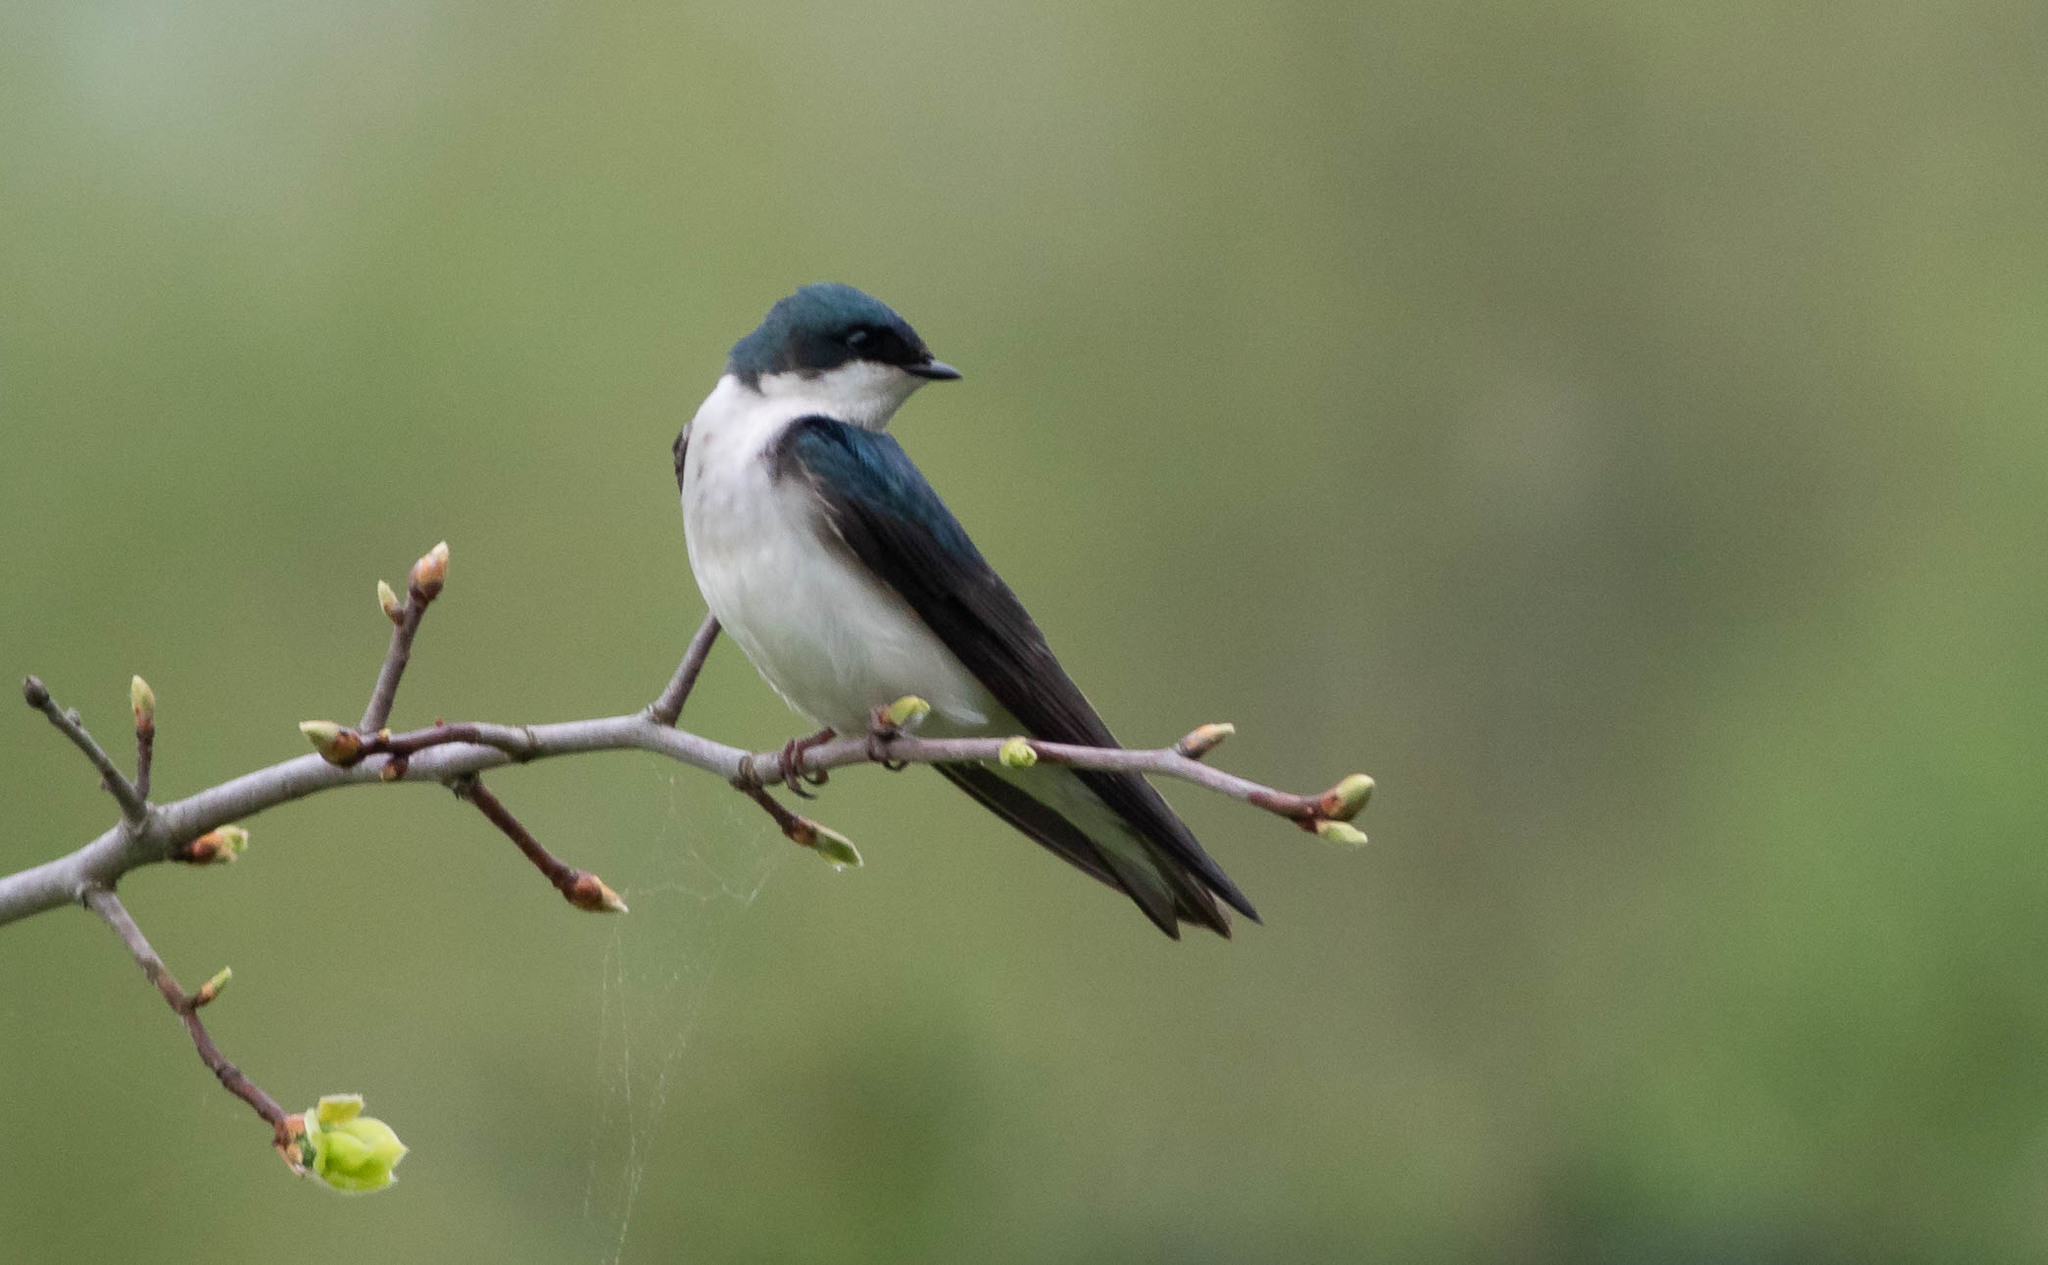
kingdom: Animalia
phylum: Chordata
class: Aves
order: Passeriformes
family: Hirundinidae
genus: Tachycineta
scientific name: Tachycineta bicolor
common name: Tree swallow
